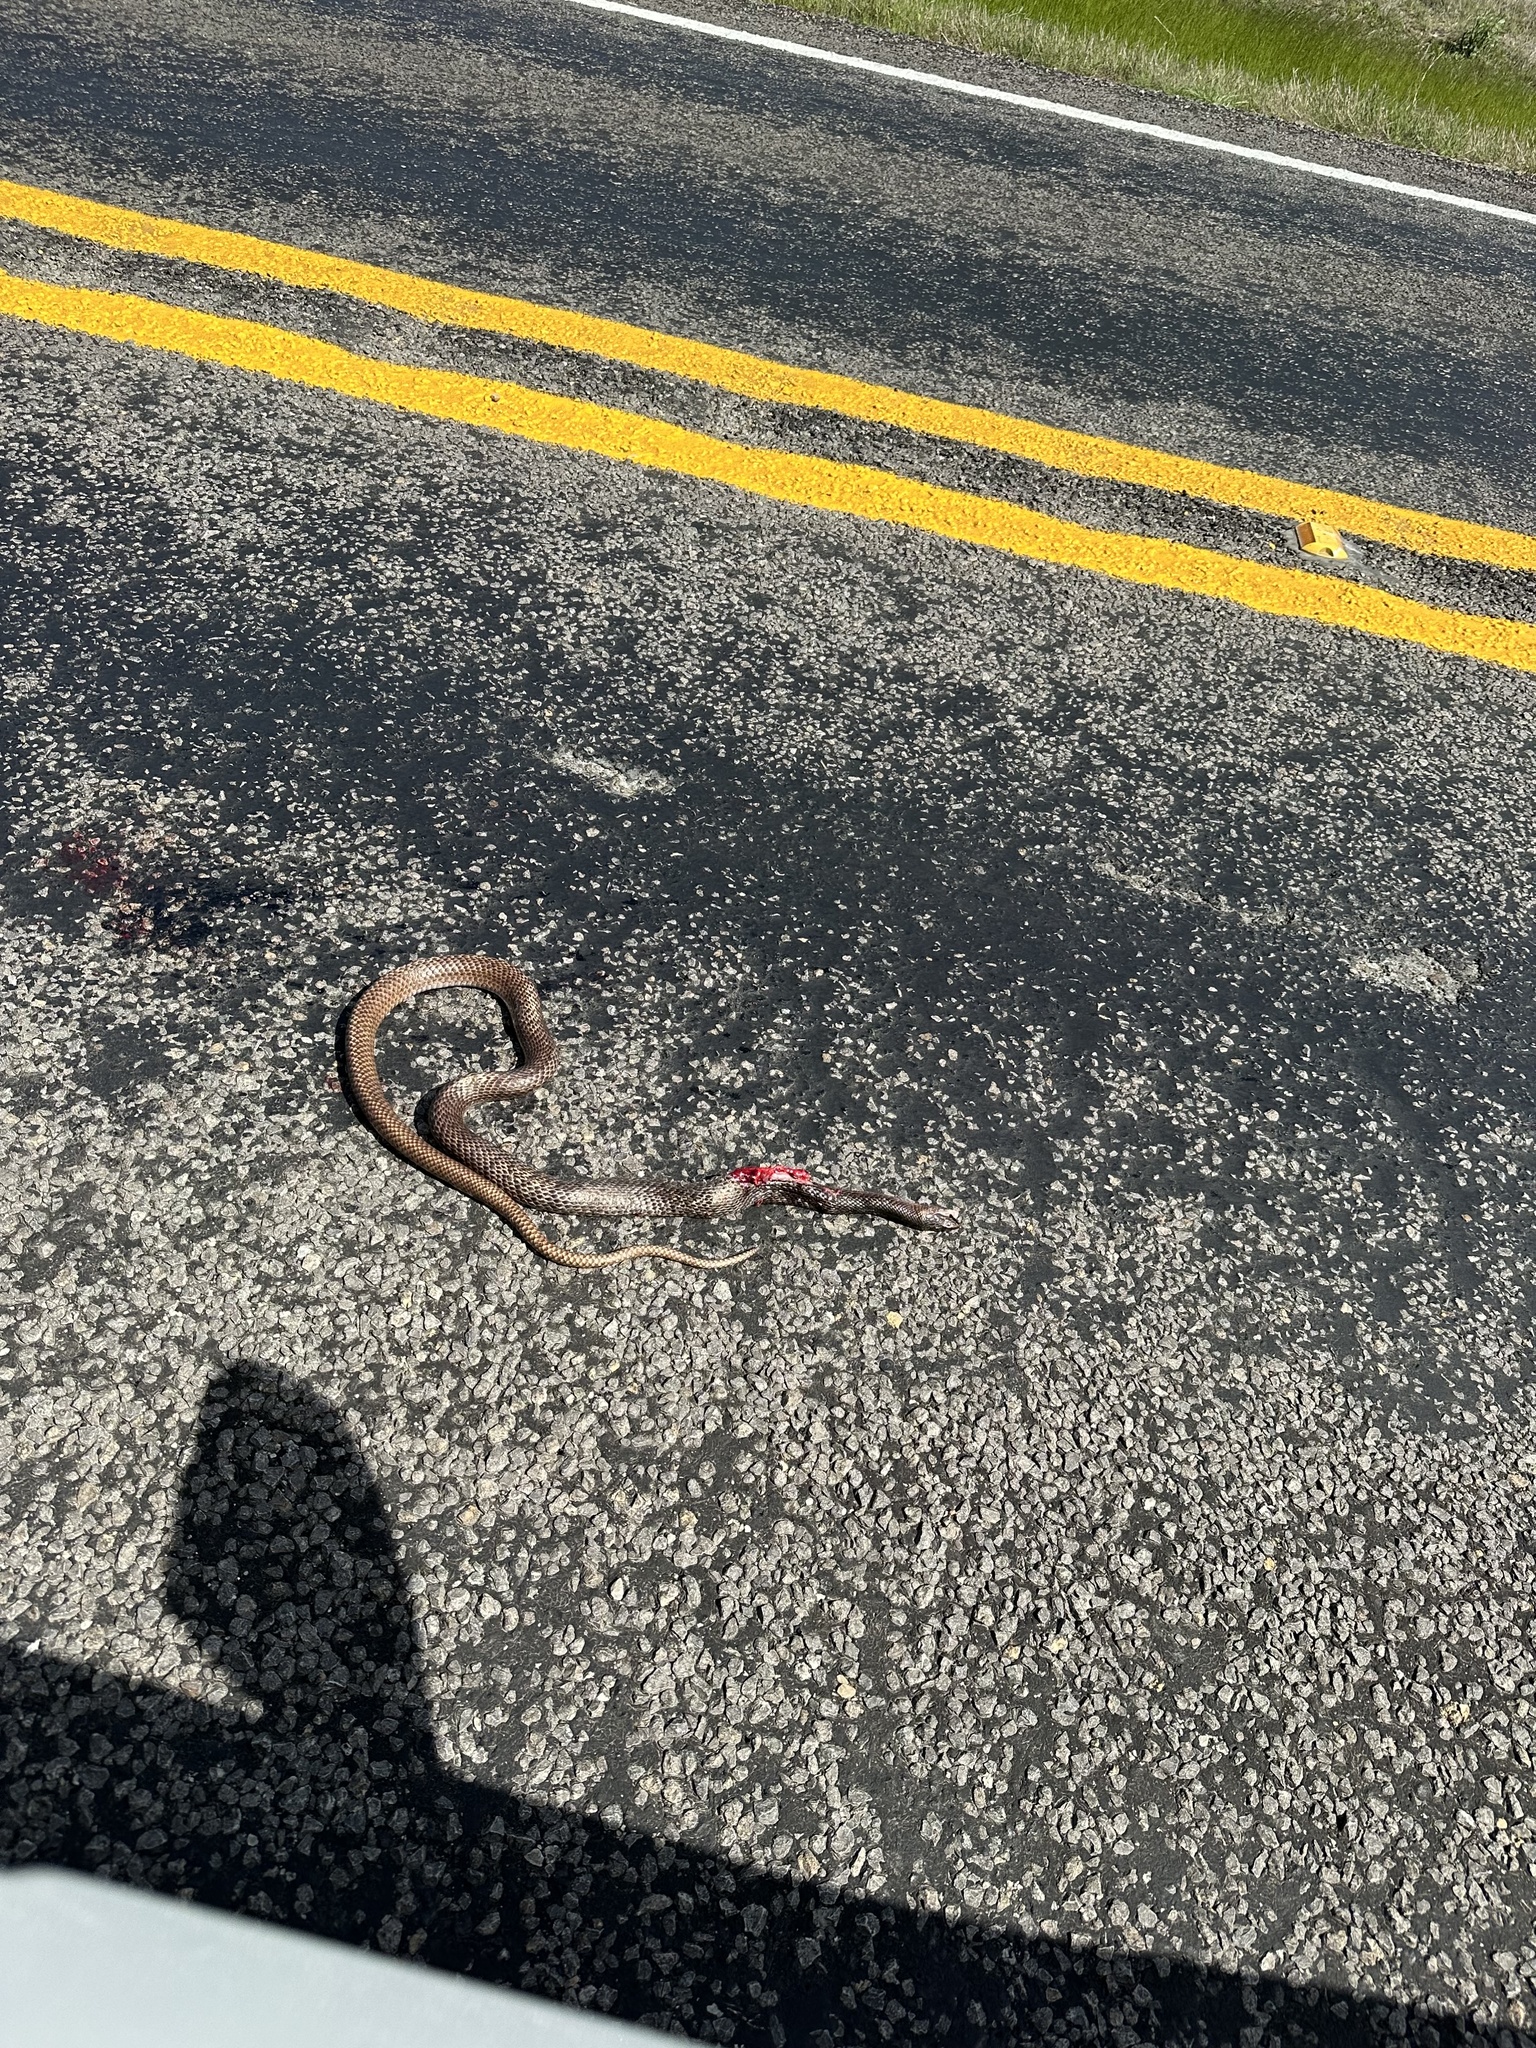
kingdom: Animalia
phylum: Chordata
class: Squamata
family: Colubridae
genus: Masticophis
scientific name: Masticophis flagellum
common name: Coachwhip
